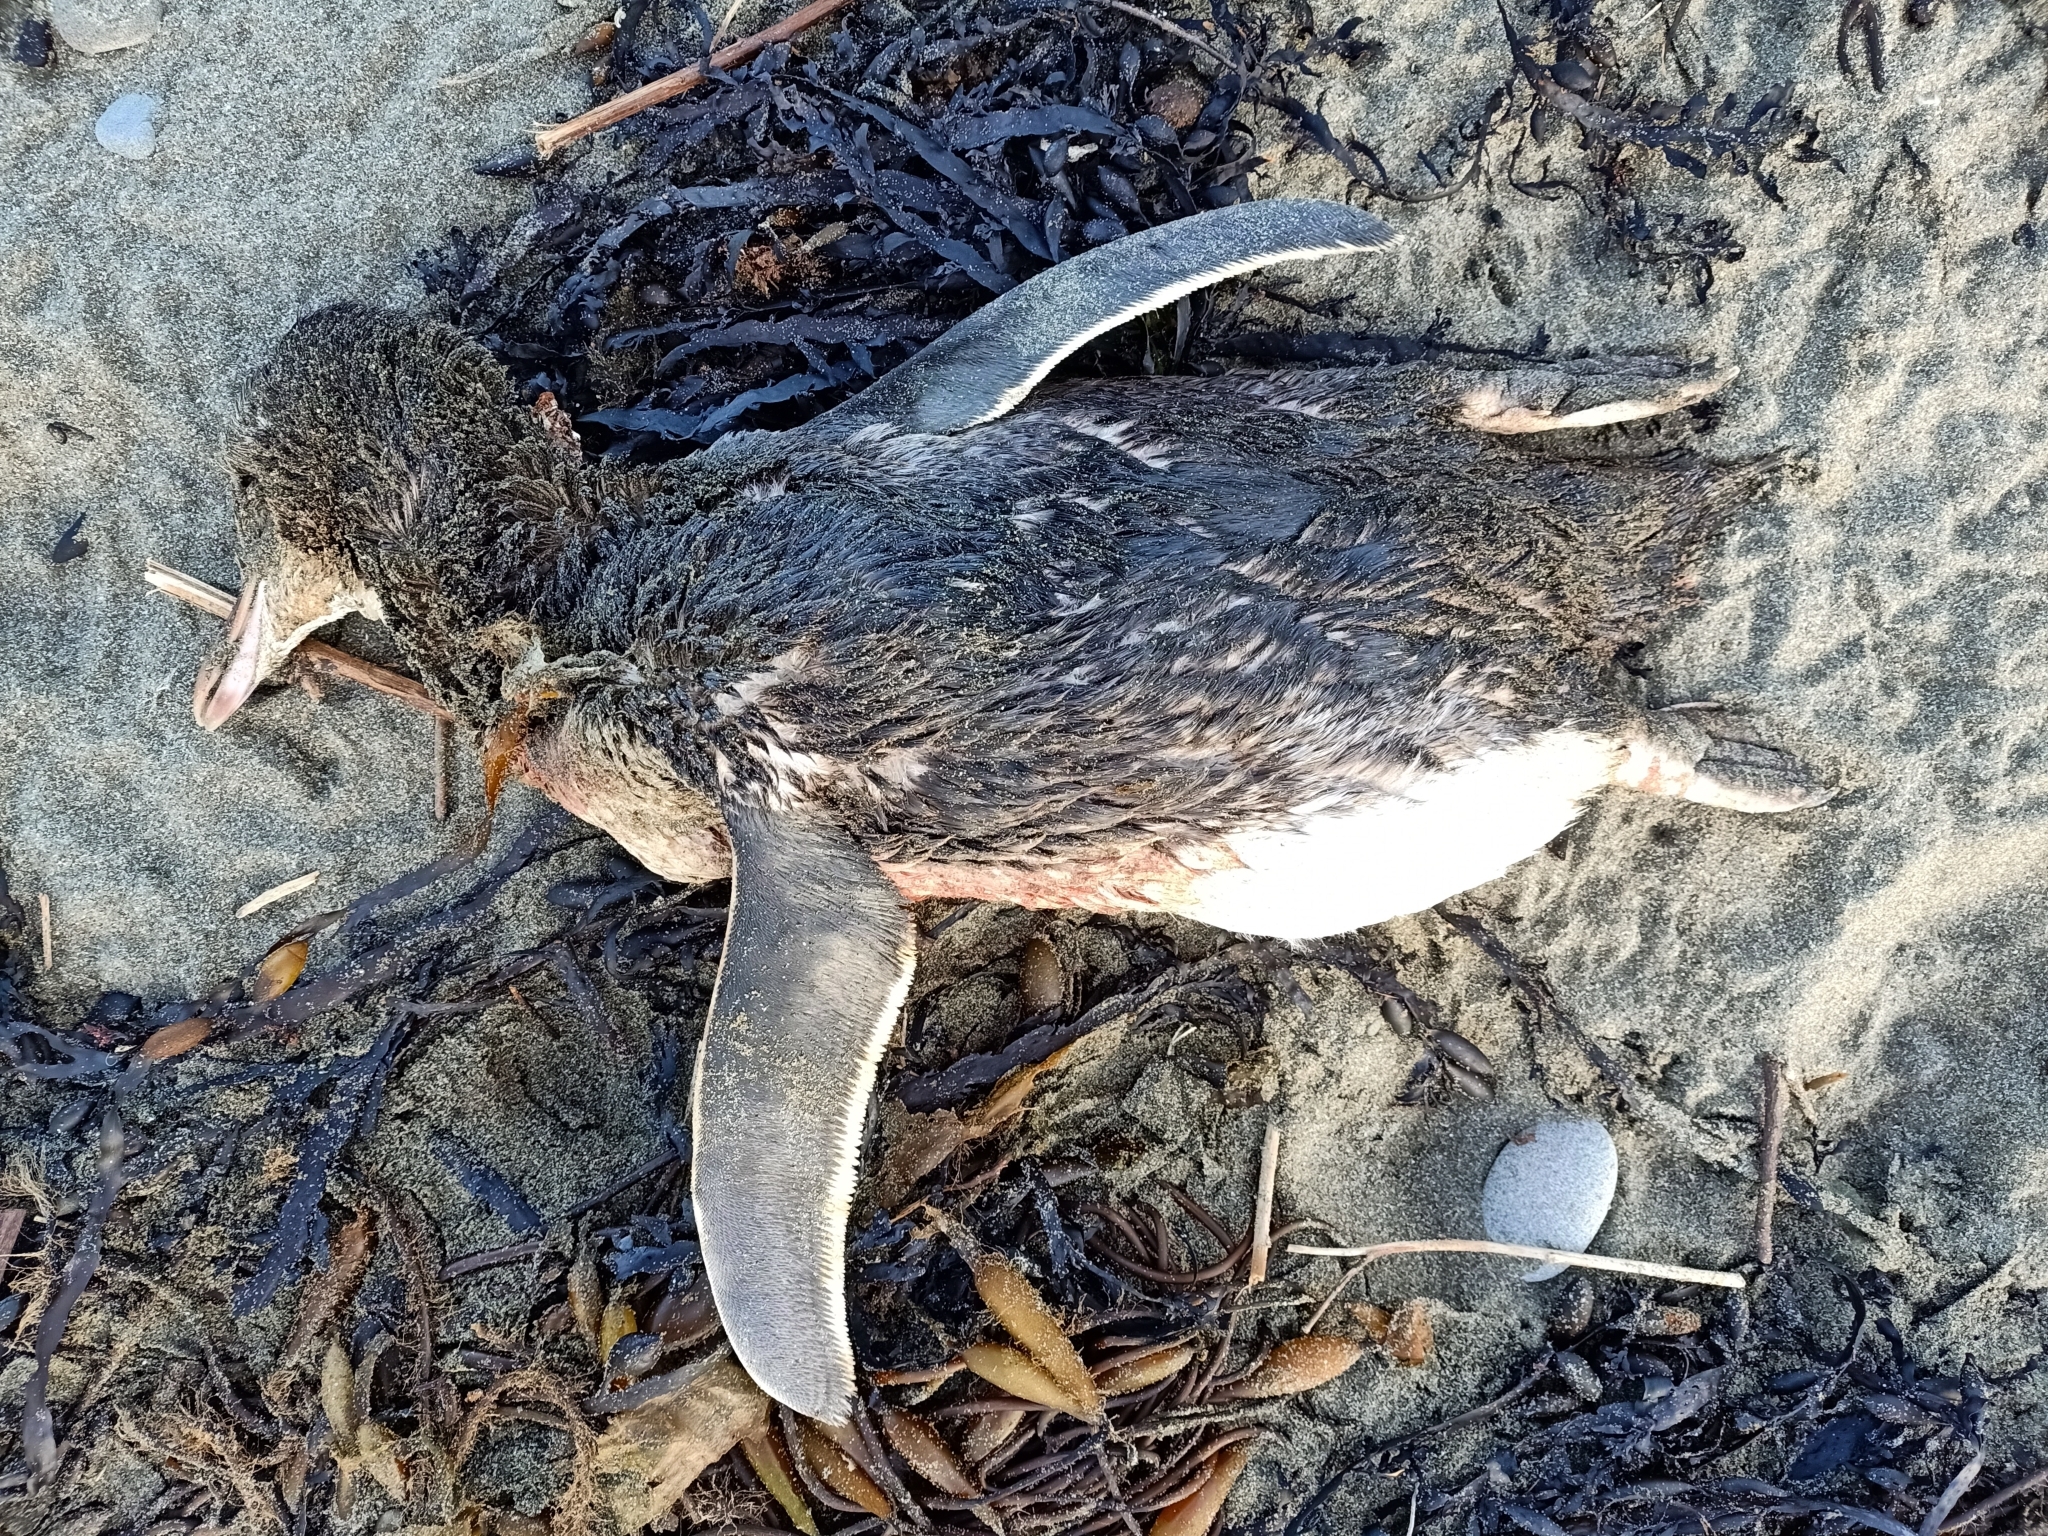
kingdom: Animalia
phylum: Chordata
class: Aves
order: Sphenisciformes
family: Spheniscidae
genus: Megadyptes
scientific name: Megadyptes antipodes
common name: Yellow-eyed penguin
